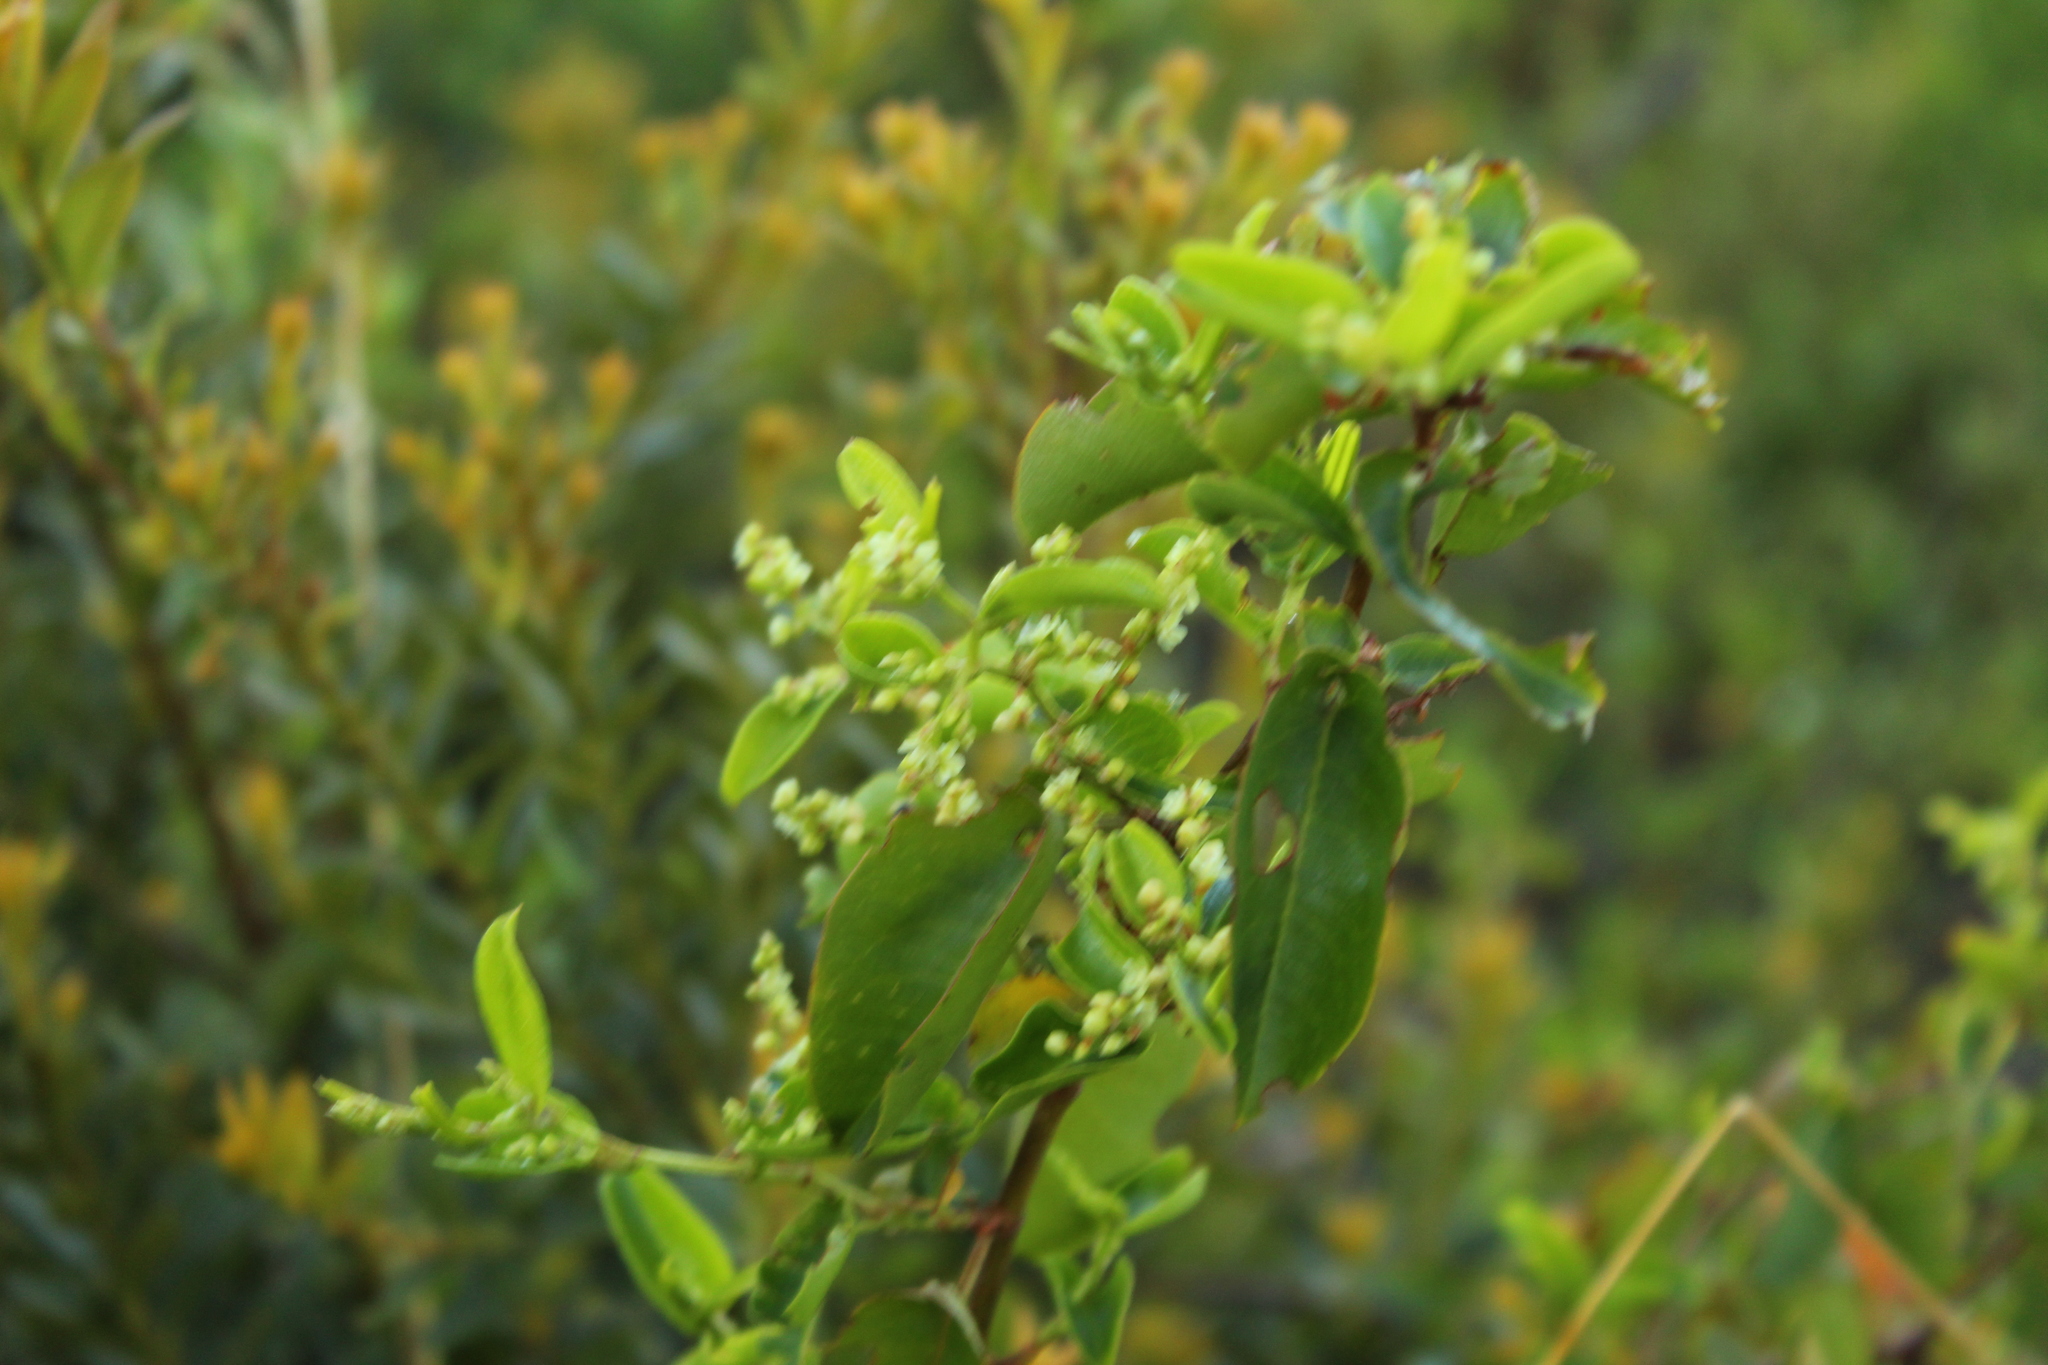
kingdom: Plantae
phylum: Tracheophyta
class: Magnoliopsida
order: Caryophyllales
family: Polygonaceae
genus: Muehlenbeckia
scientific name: Muehlenbeckia tamnifolia
